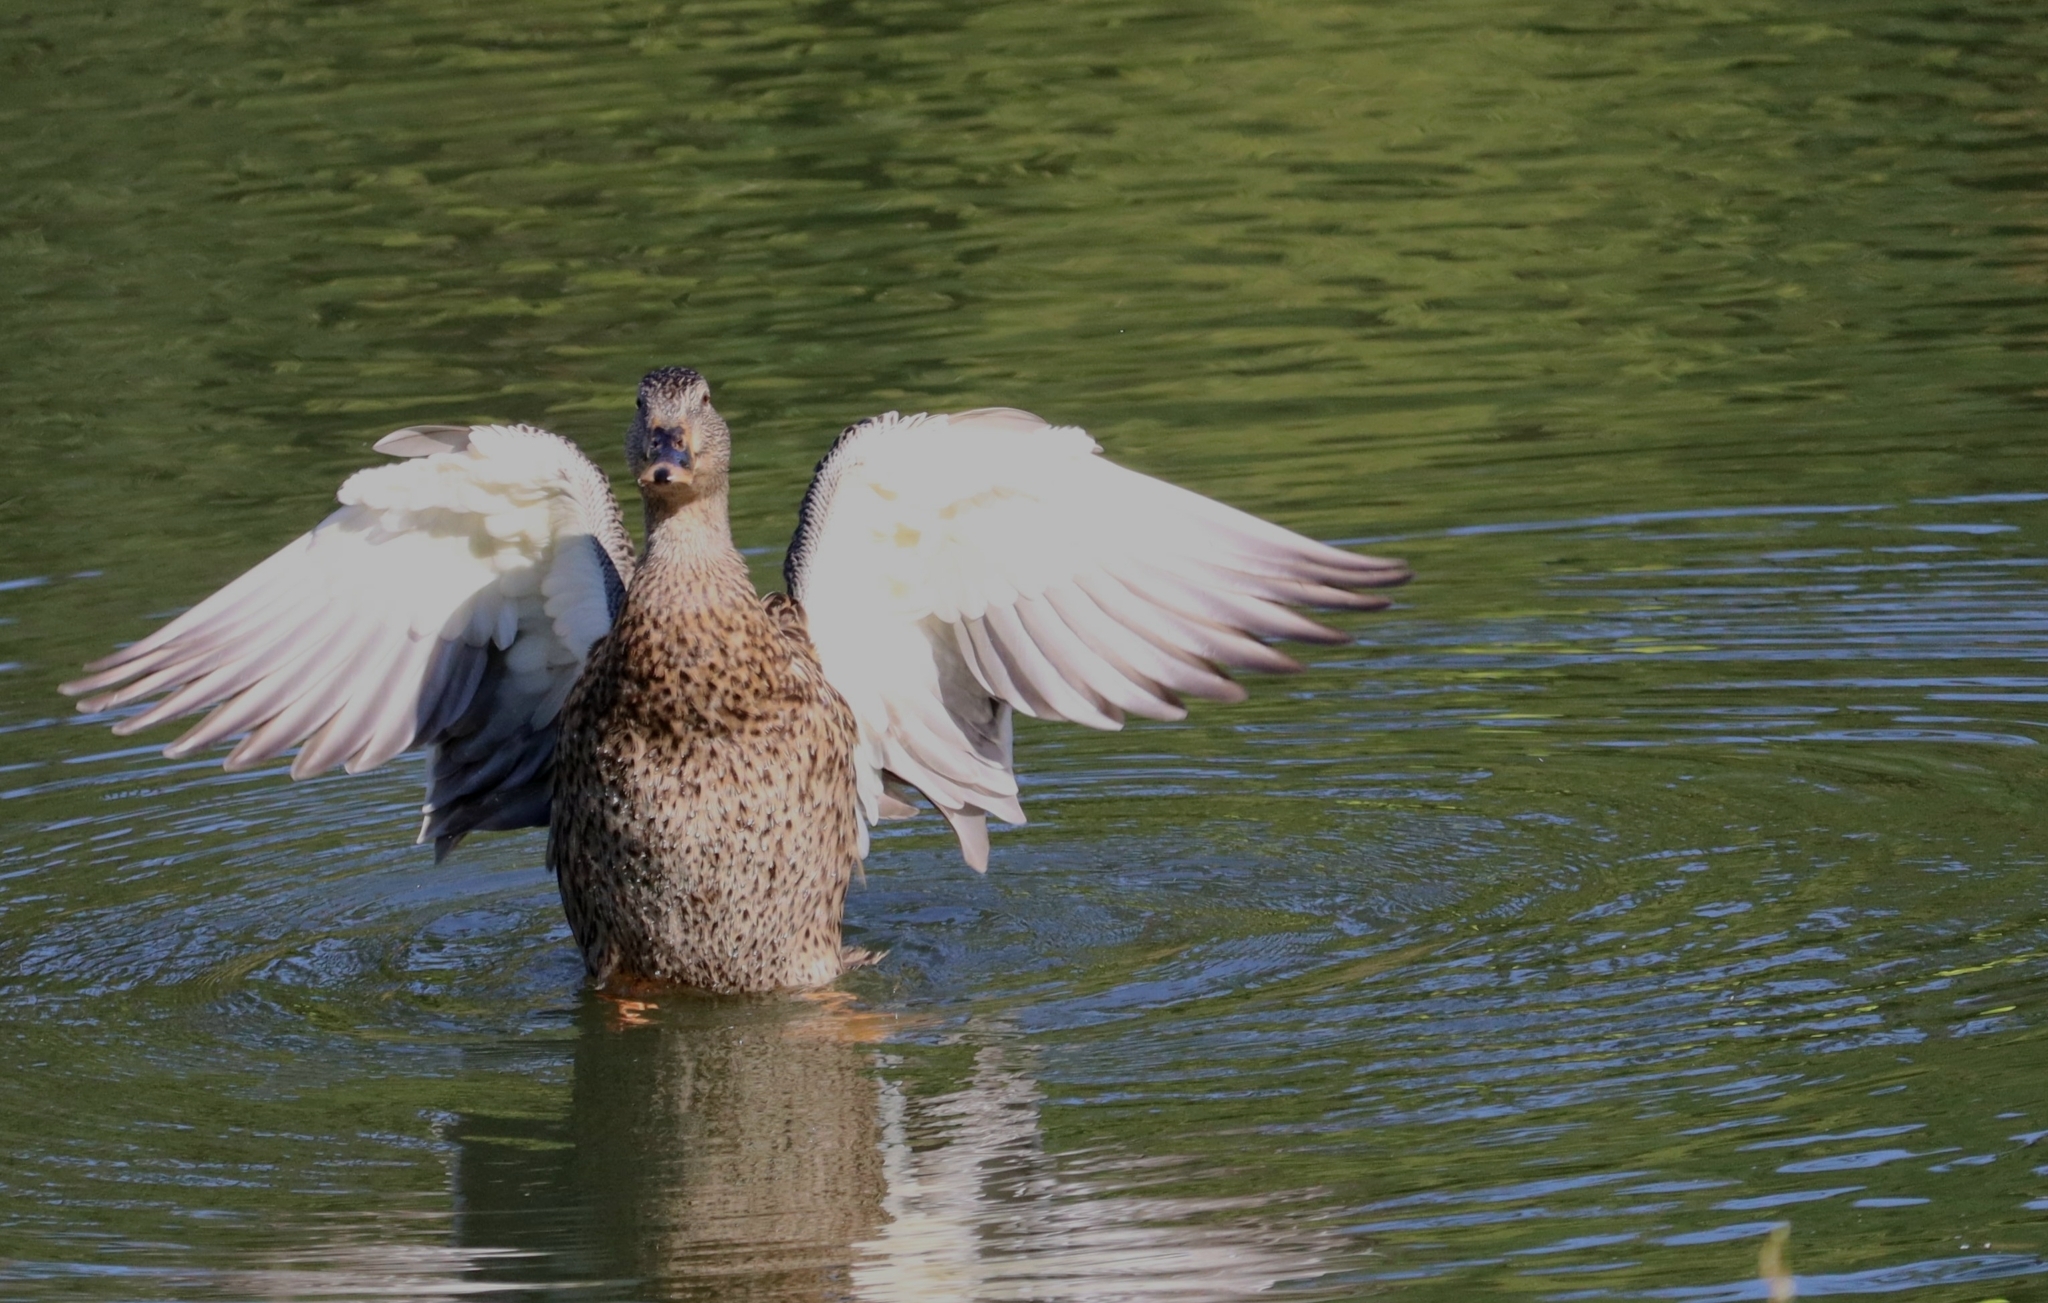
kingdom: Animalia
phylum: Chordata
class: Aves
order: Anseriformes
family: Anatidae
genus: Anas
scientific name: Anas platyrhynchos
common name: Mallard
